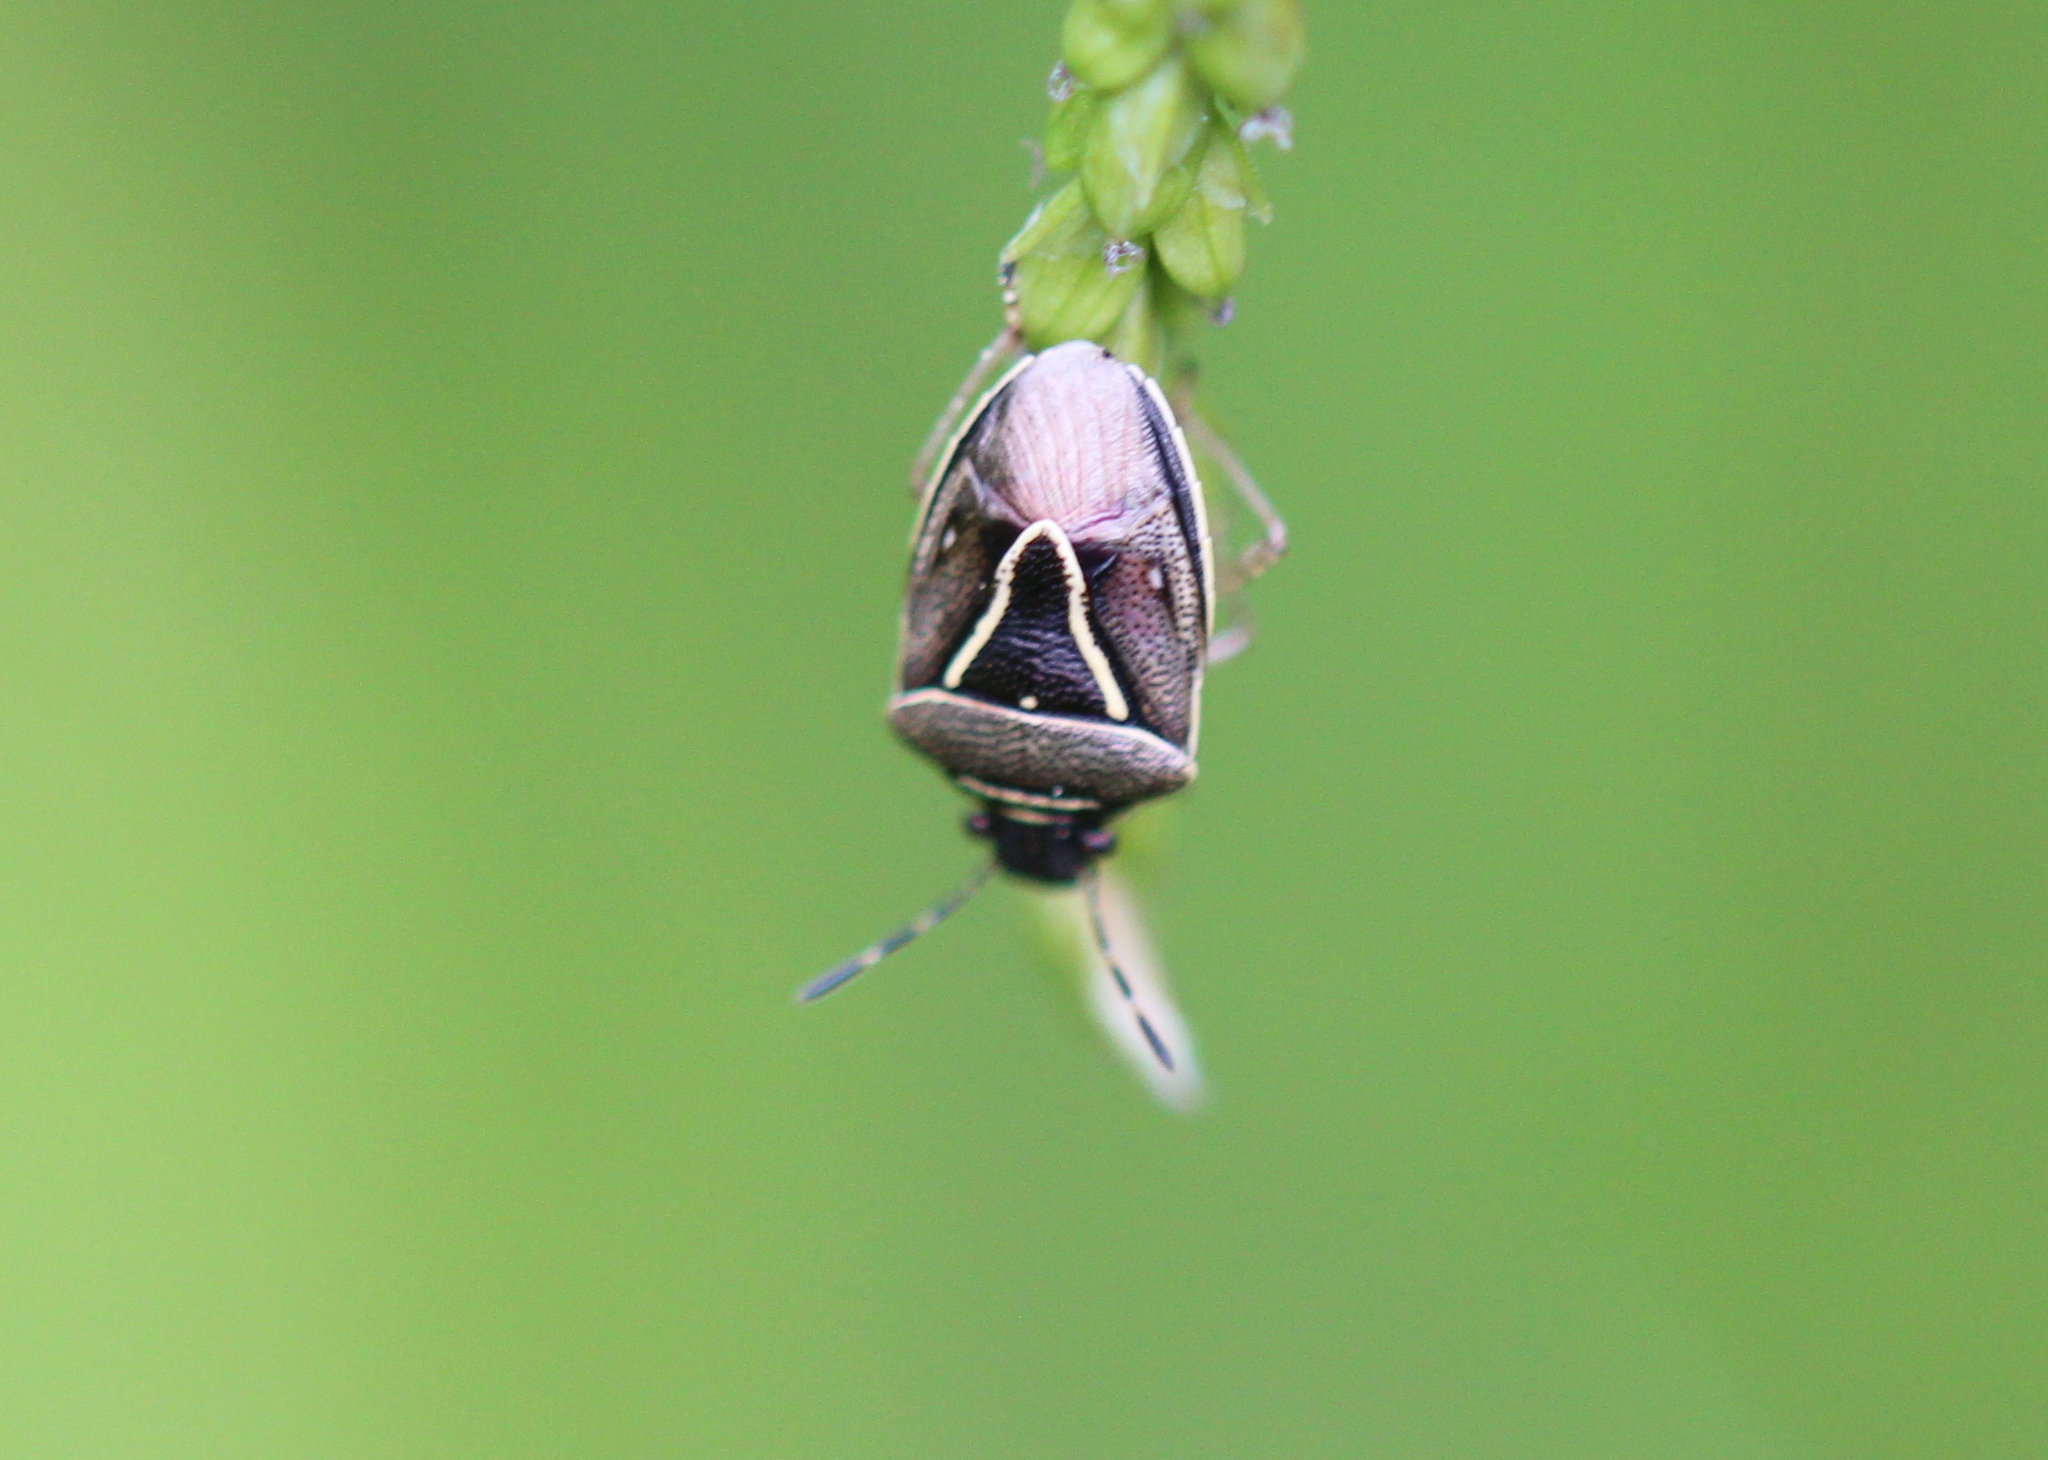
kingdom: Animalia
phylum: Arthropoda
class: Insecta
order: Hemiptera
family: Pentatomidae
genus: Mormidea
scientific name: Mormidea lugens
